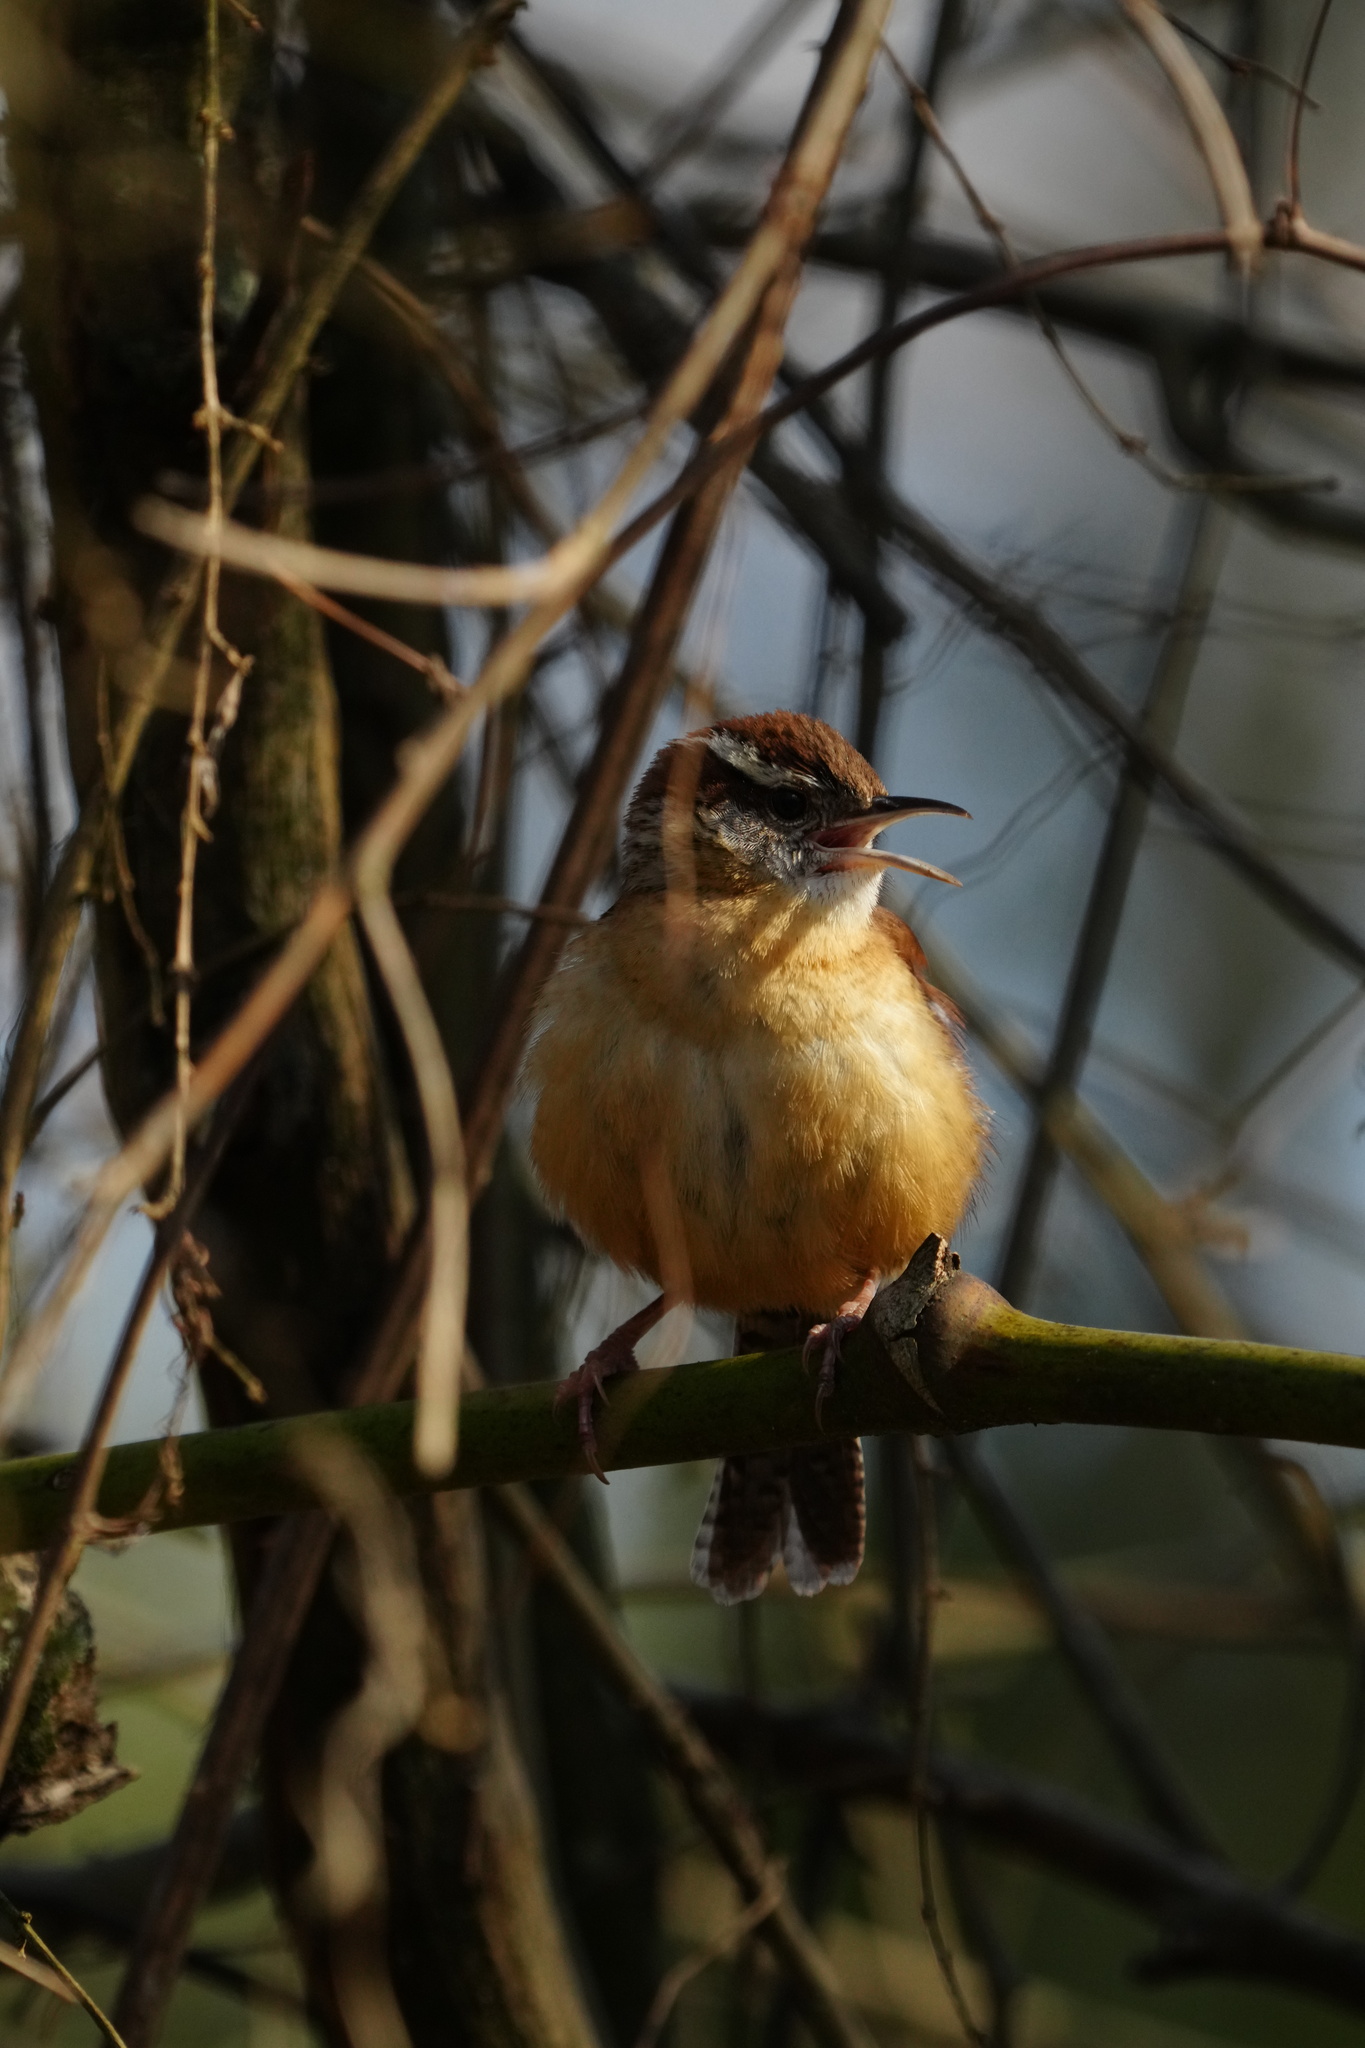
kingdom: Animalia
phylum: Chordata
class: Aves
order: Passeriformes
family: Troglodytidae
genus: Thryothorus
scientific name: Thryothorus ludovicianus
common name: Carolina wren
